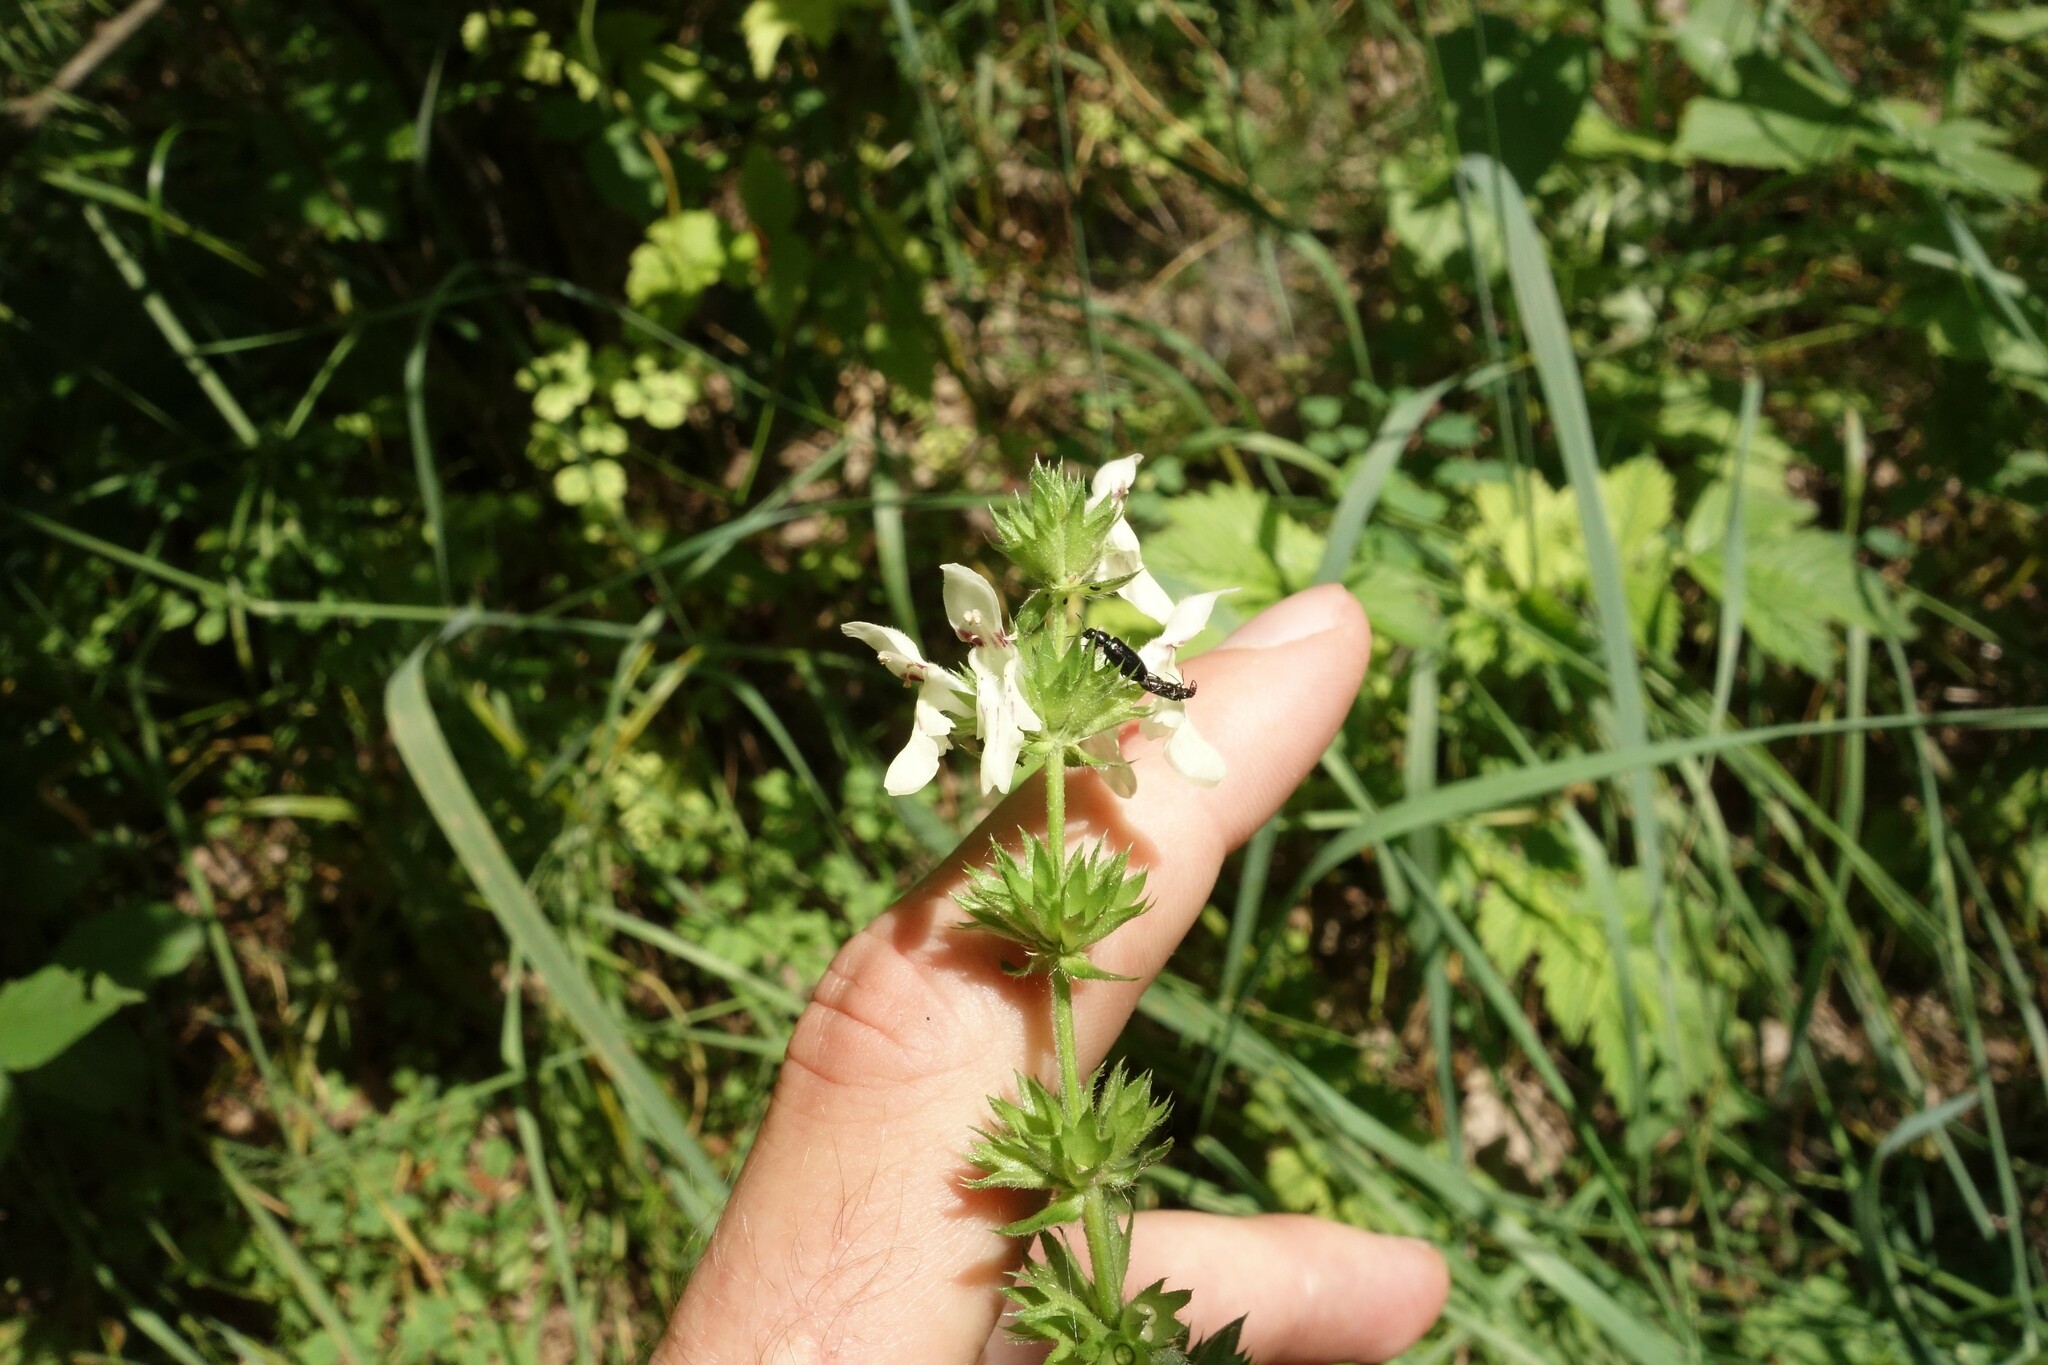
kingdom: Plantae
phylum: Tracheophyta
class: Magnoliopsida
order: Lamiales
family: Lamiaceae
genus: Stachys
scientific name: Stachys recta
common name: Perennial yellow-woundwort
